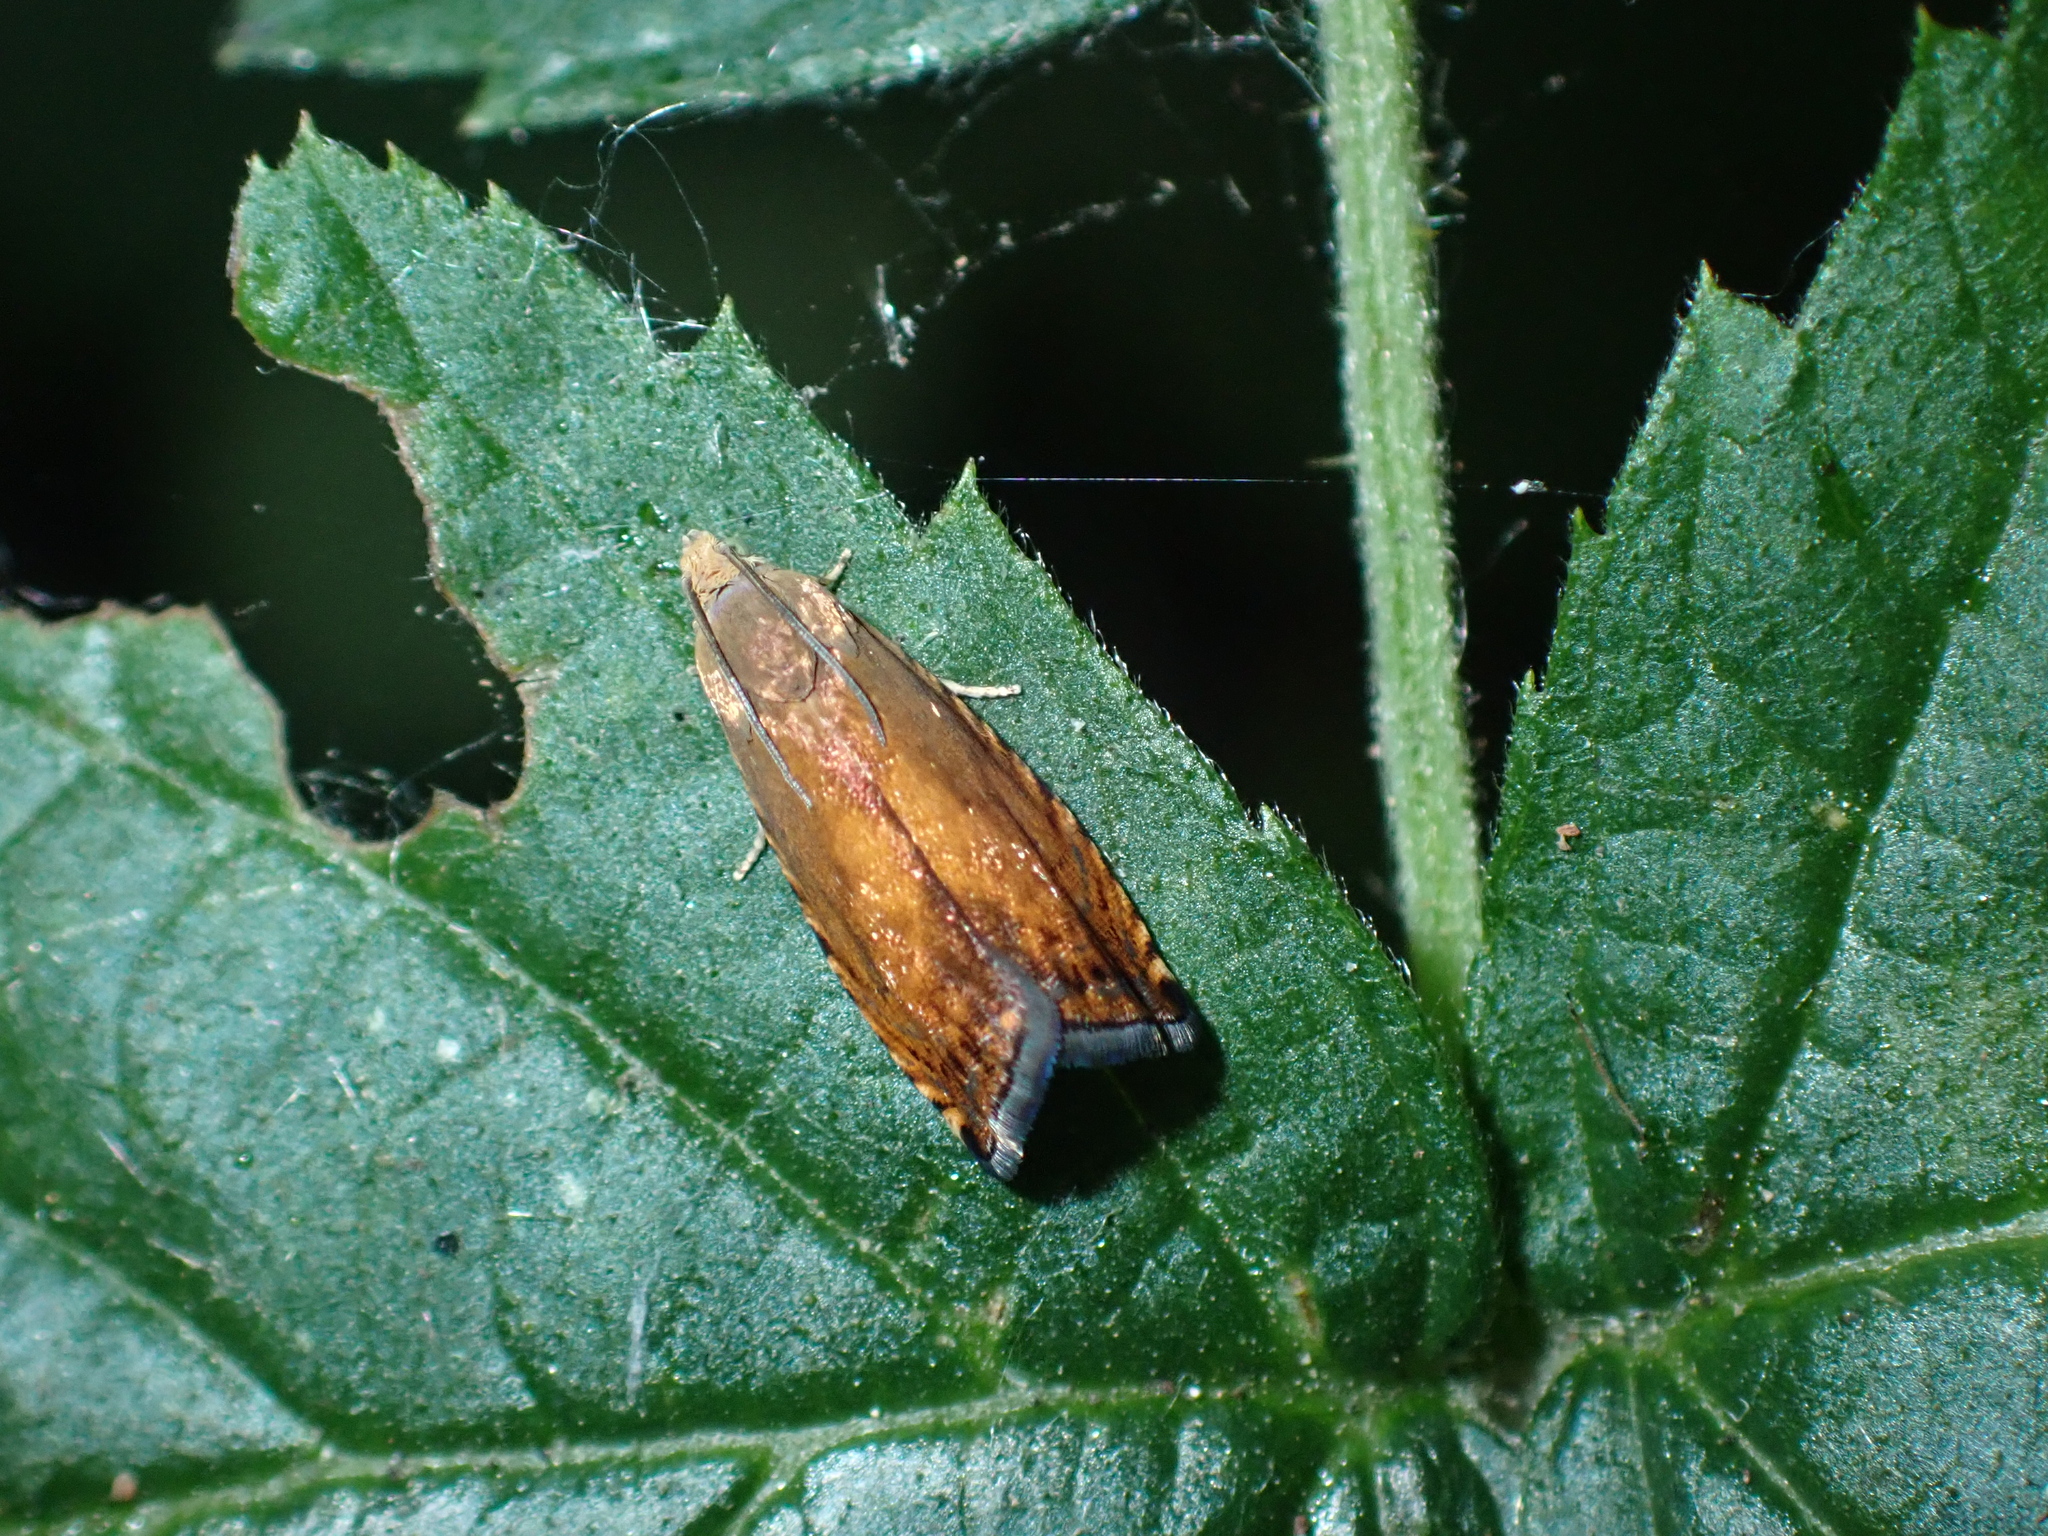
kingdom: Animalia
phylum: Arthropoda
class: Insecta
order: Lepidoptera
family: Tortricidae
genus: Pammene
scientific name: Pammene aurita
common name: Sycamore piercer
